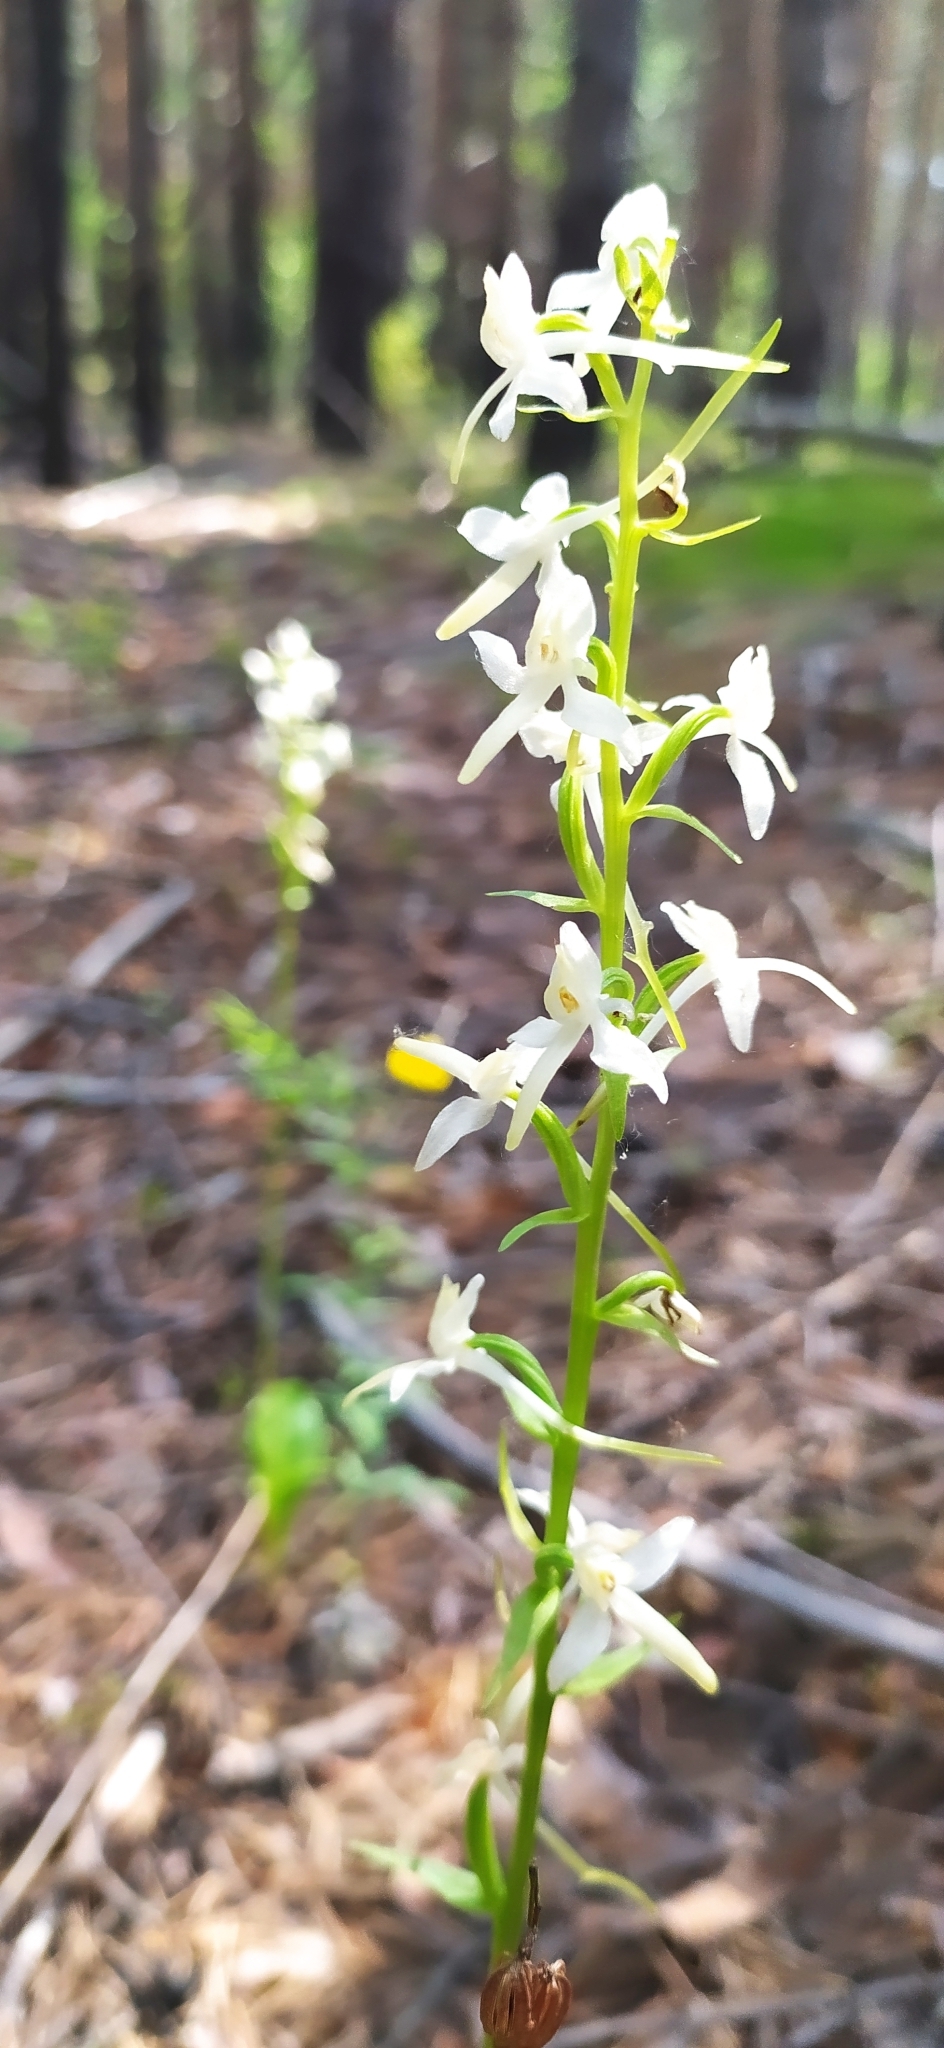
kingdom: Plantae
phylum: Tracheophyta
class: Liliopsida
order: Asparagales
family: Orchidaceae
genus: Platanthera
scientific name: Platanthera bifolia
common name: Lesser butterfly-orchid
